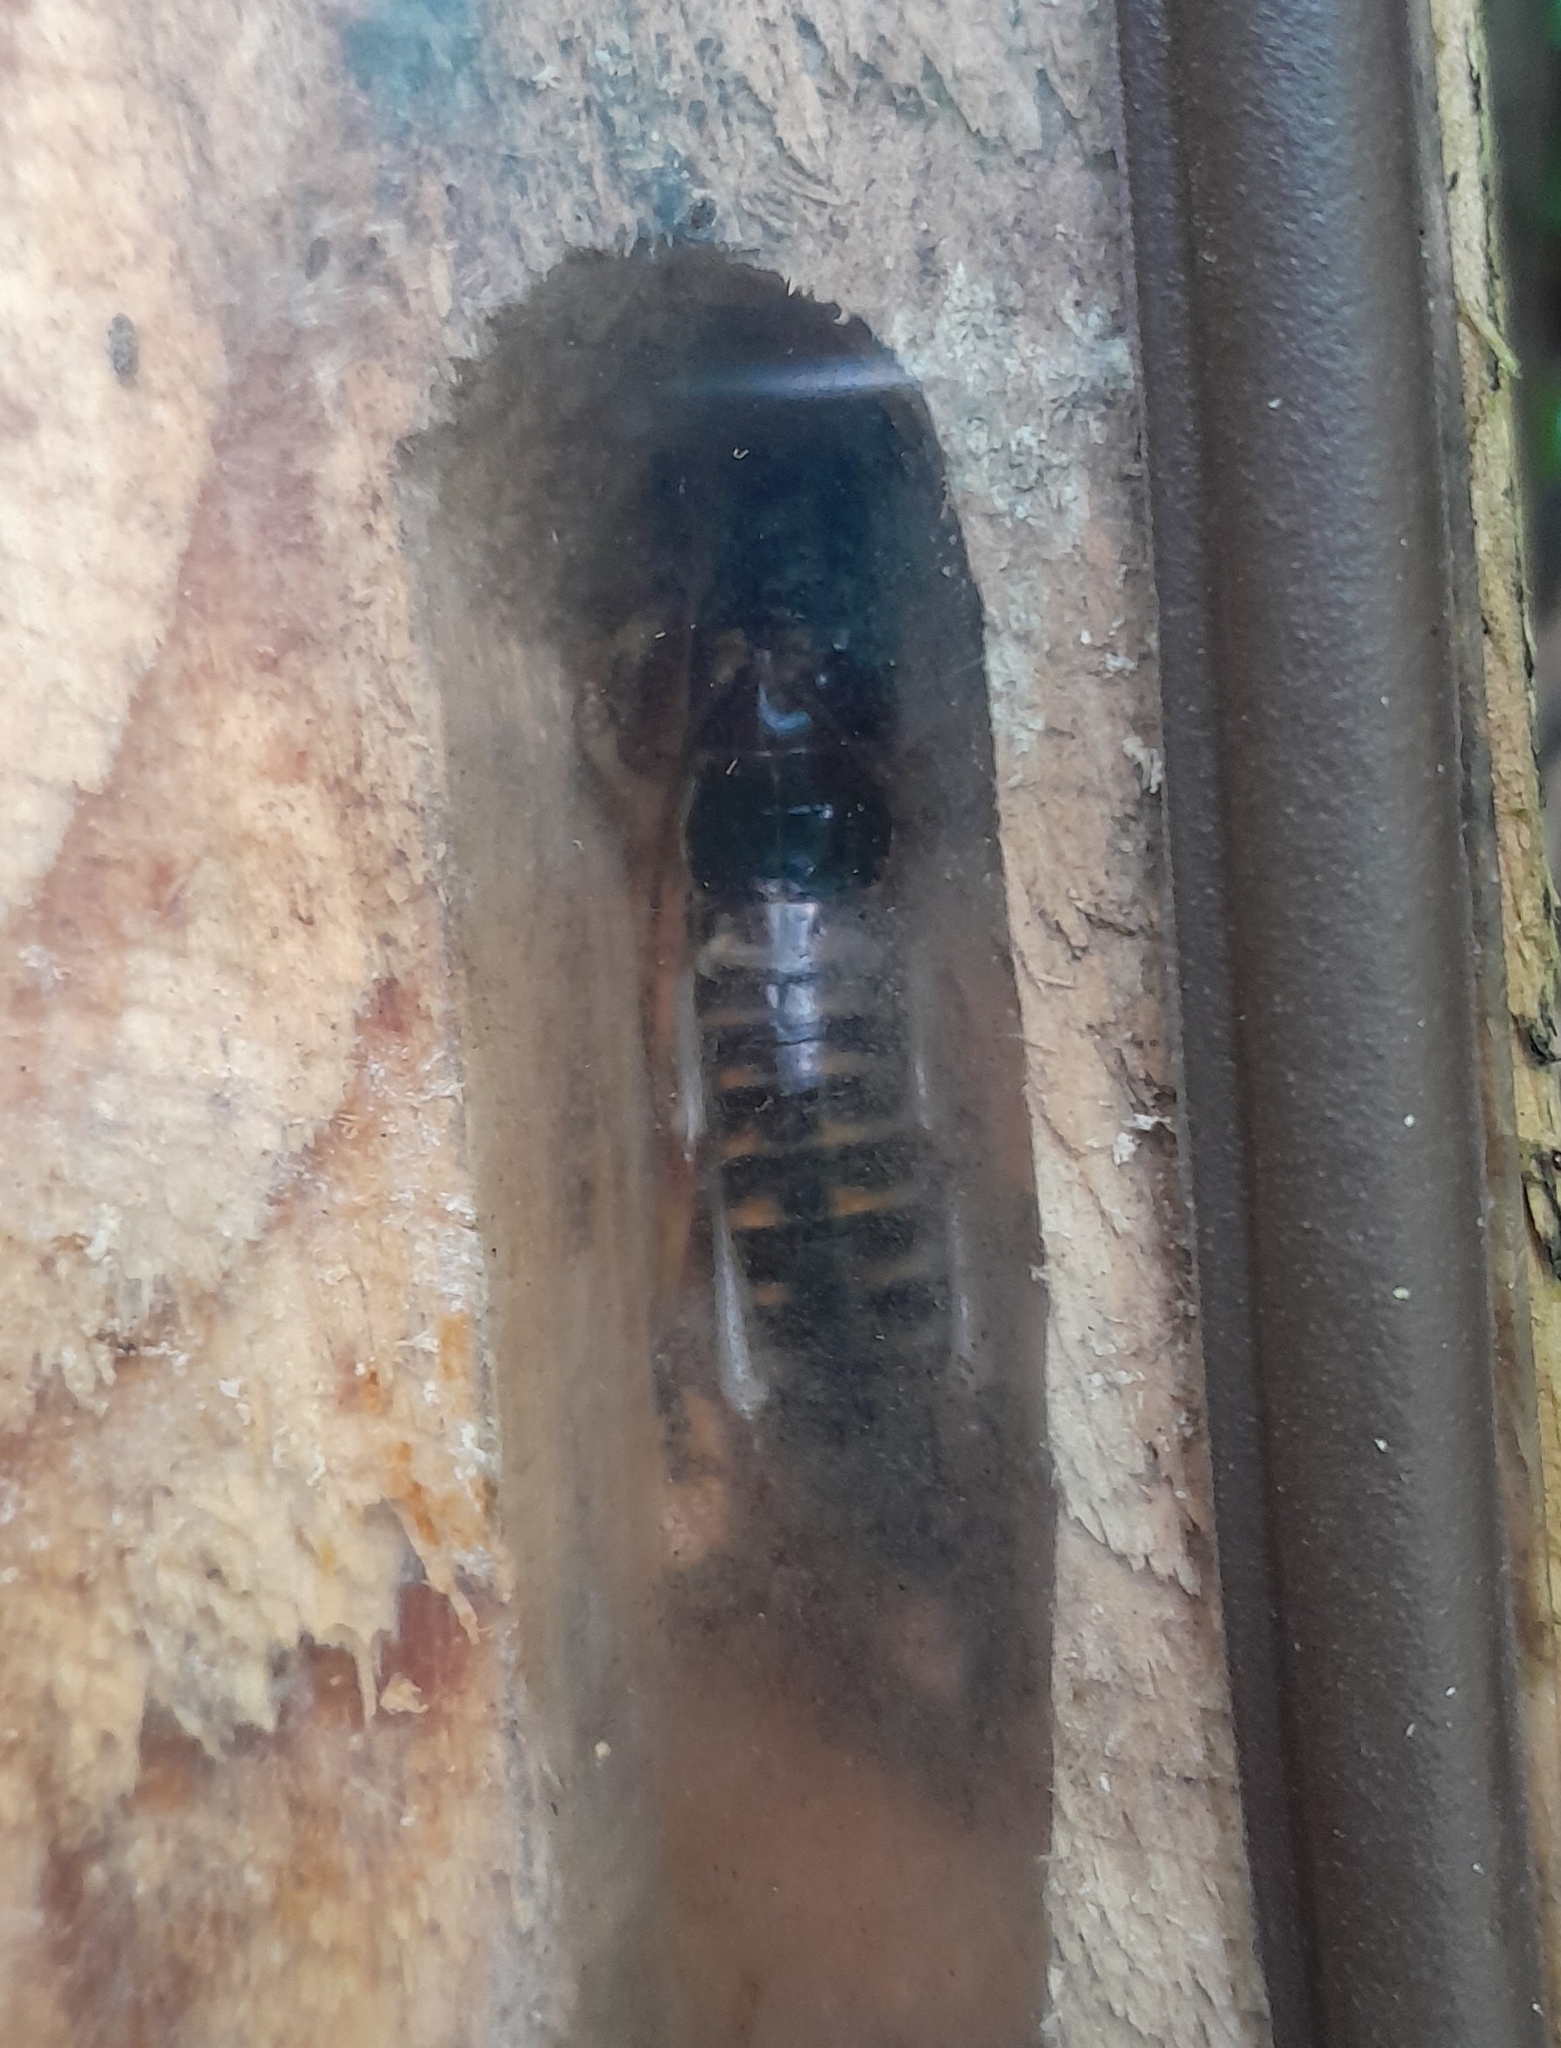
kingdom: Animalia
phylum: Arthropoda
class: Insecta
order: Orthoptera
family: Anostostomatidae
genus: Hemideina
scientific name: Hemideina crassidens
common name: Wellington tree weta
